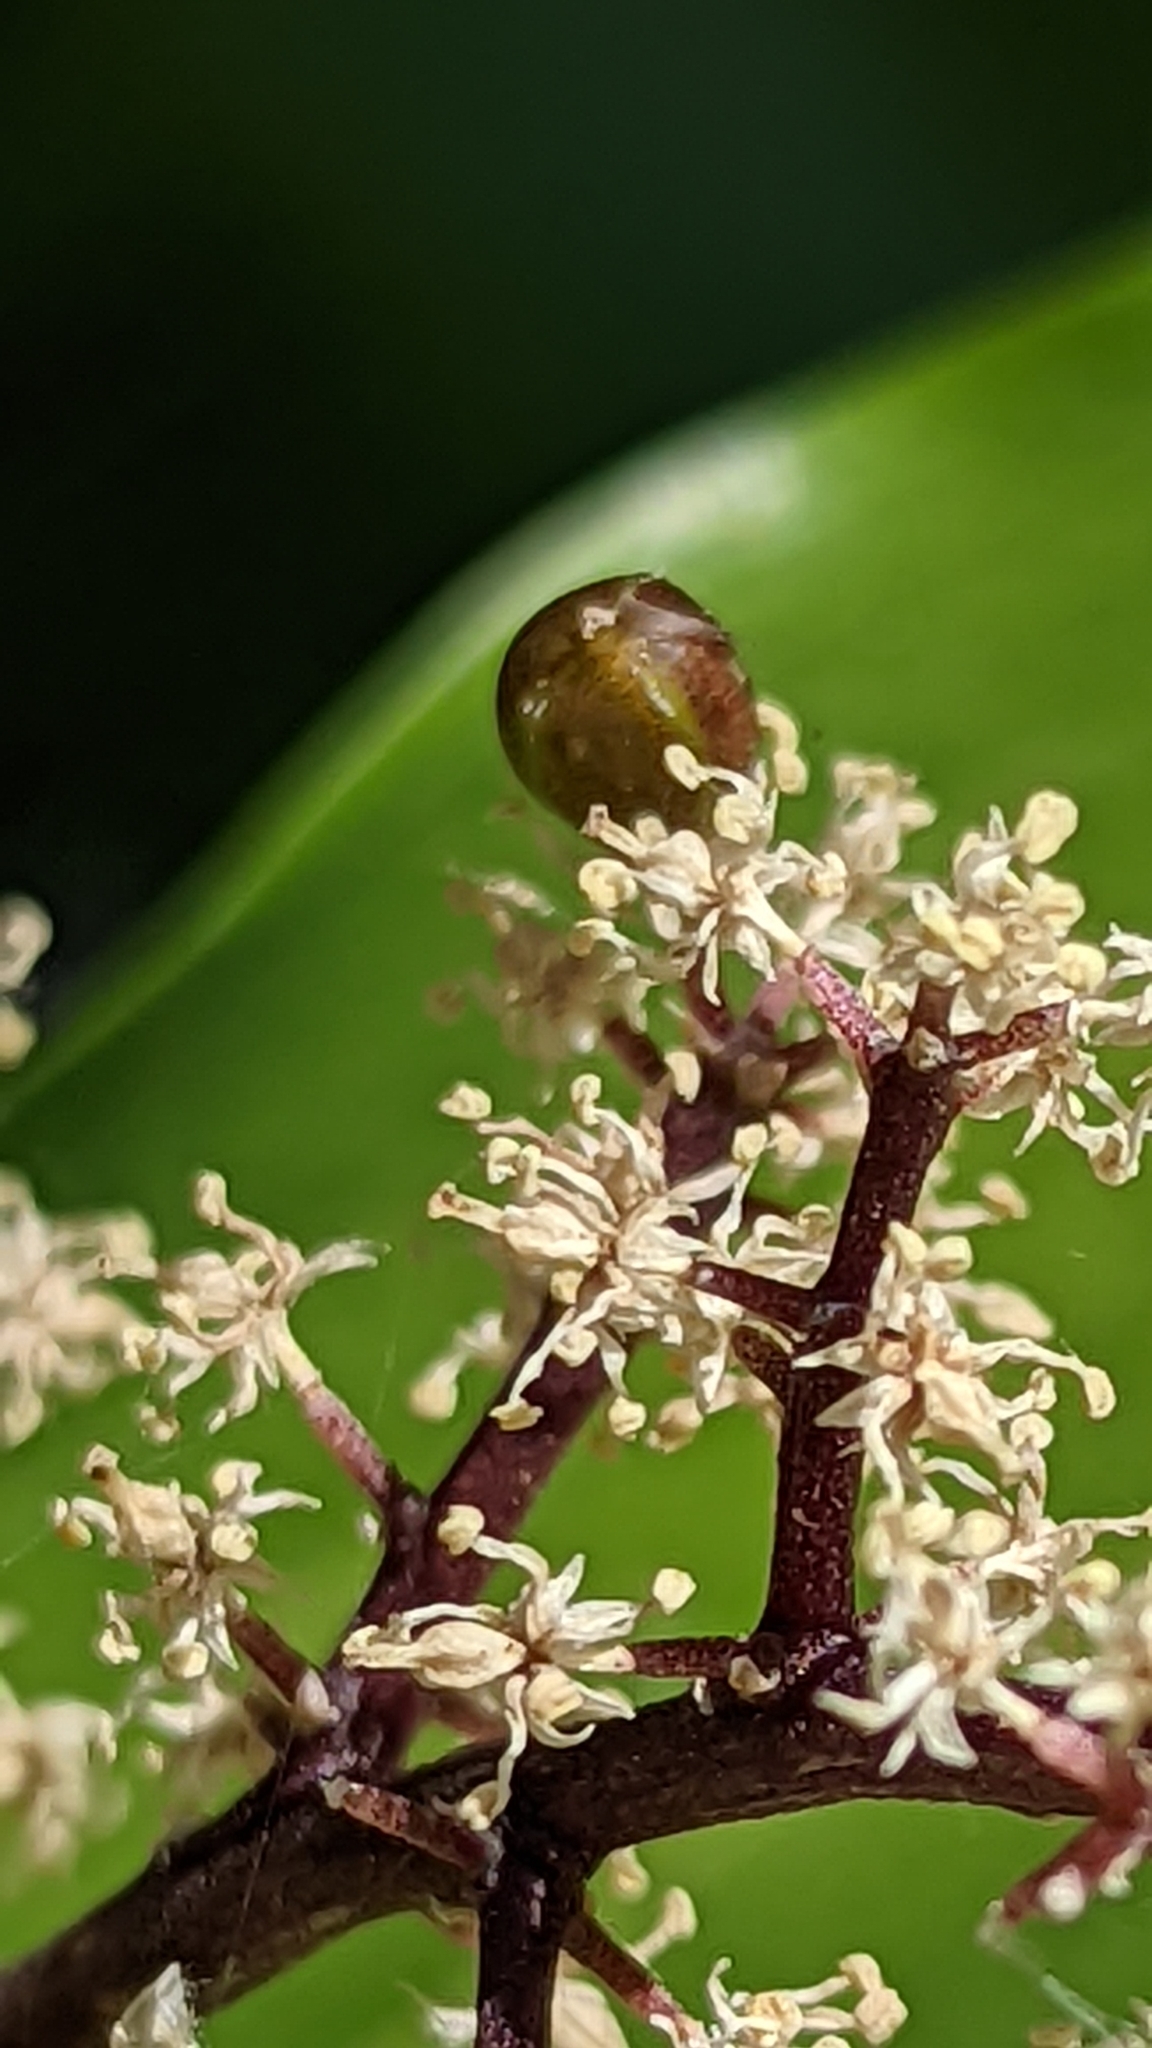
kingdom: Plantae
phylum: Tracheophyta
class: Liliopsida
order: Asparagales
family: Asparagaceae
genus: Maianthemum
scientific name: Maianthemum racemosum
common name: False spikenard
